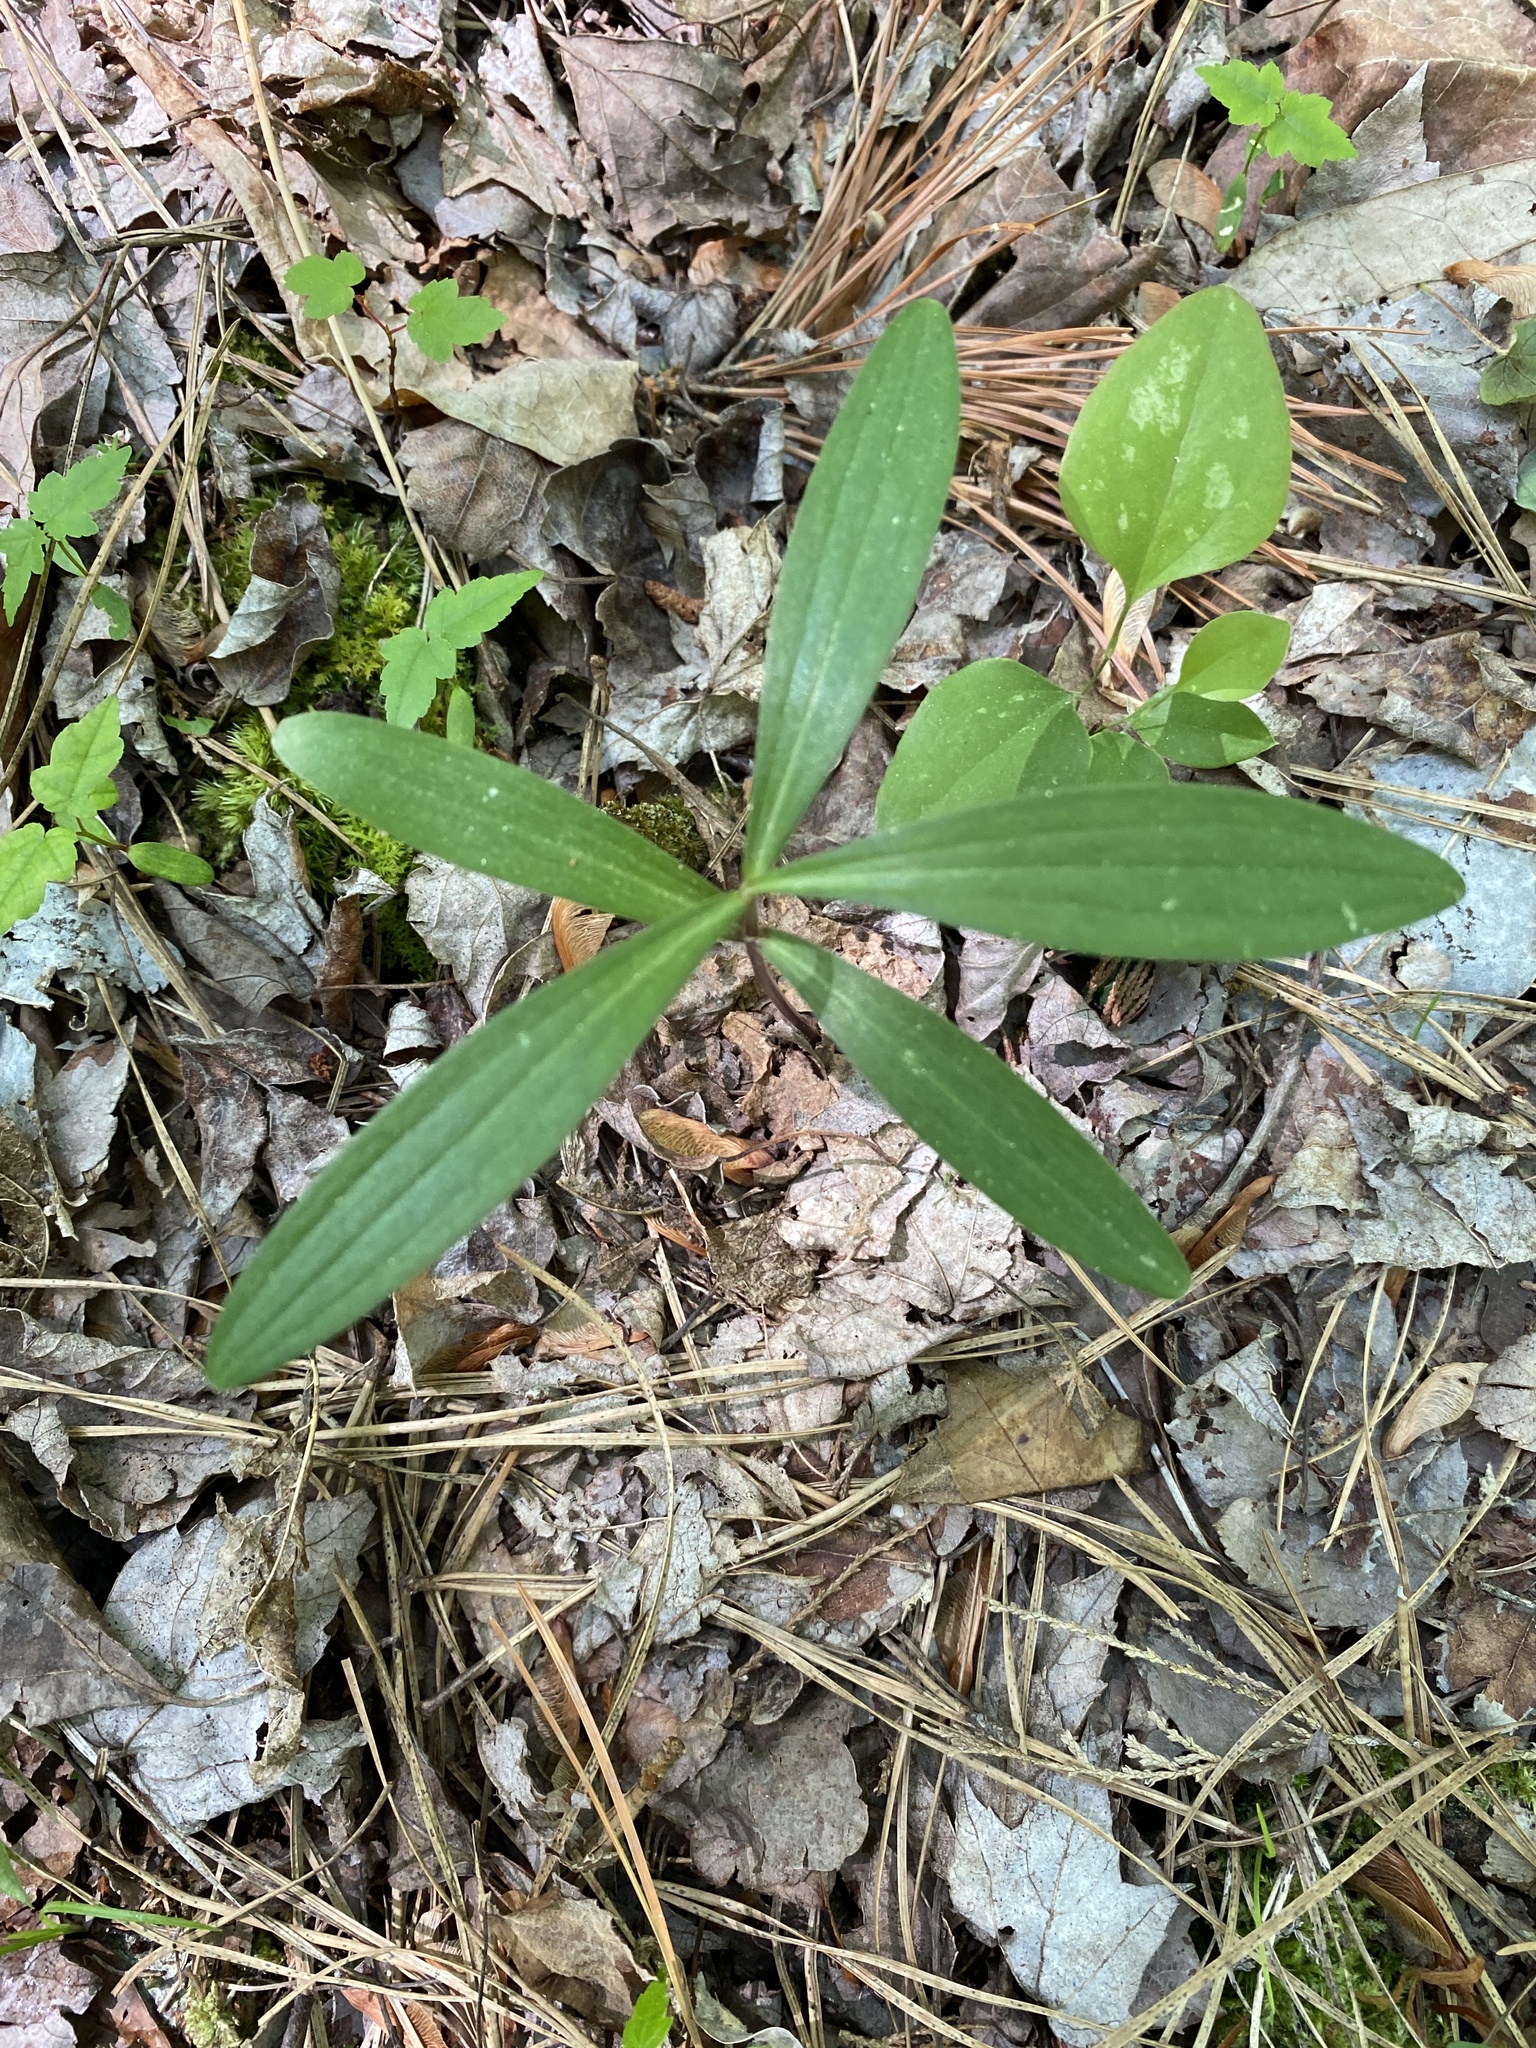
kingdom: Plantae
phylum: Tracheophyta
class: Liliopsida
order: Liliales
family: Liliaceae
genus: Lilium
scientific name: Lilium superbum
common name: American turk's-cap lily
